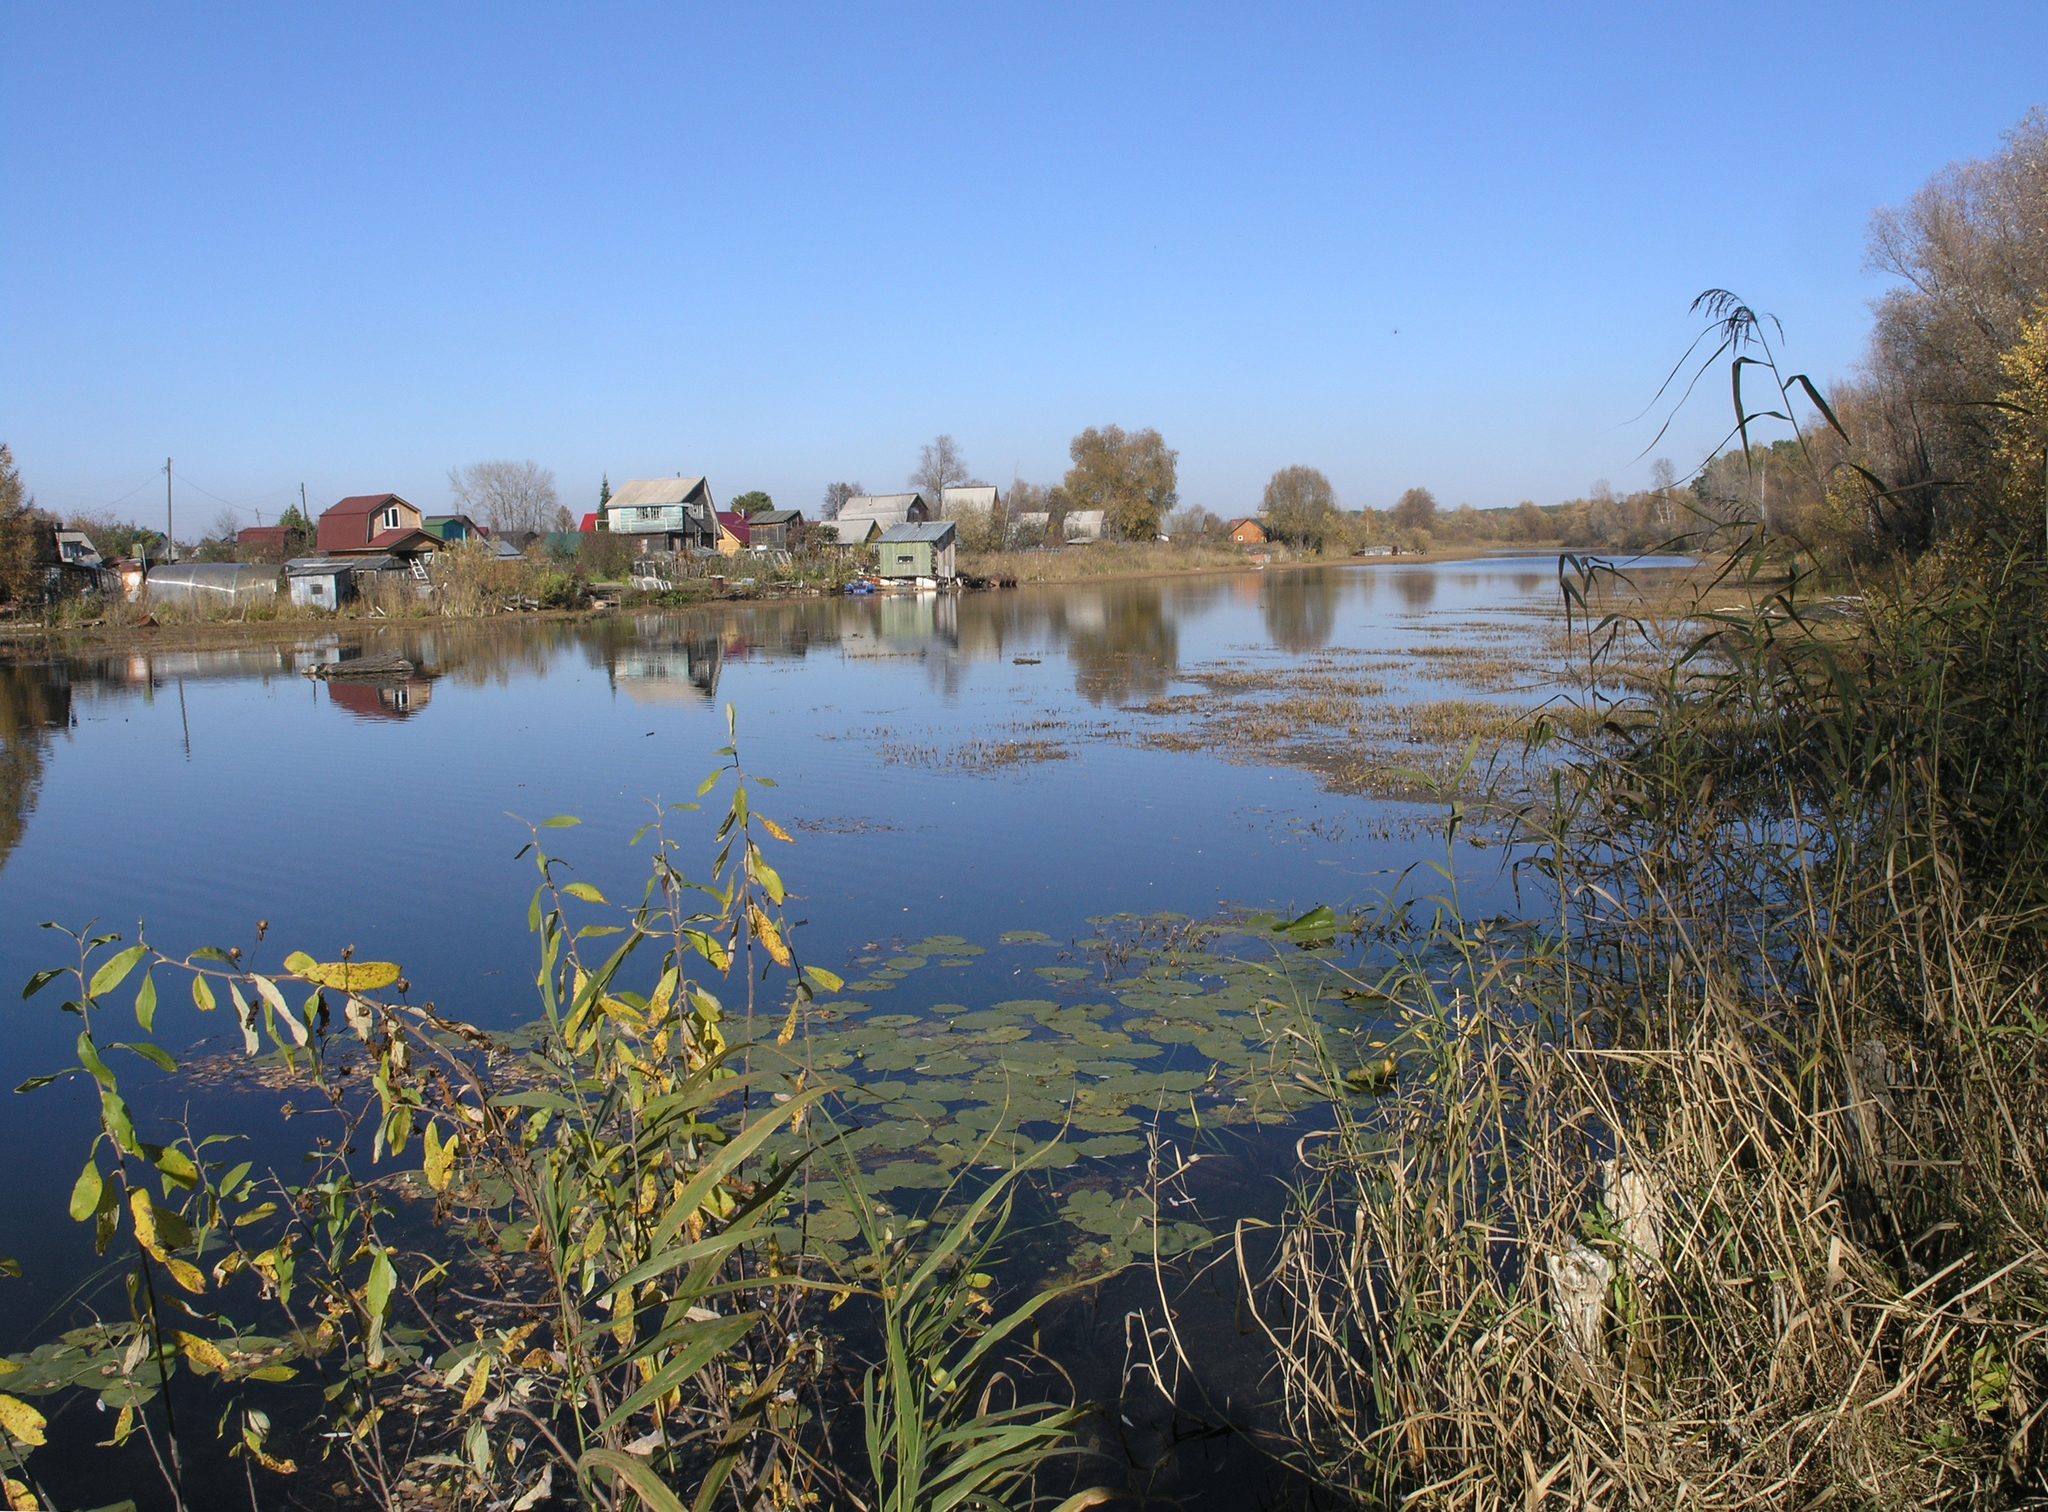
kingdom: Plantae
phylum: Tracheophyta
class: Liliopsida
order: Poales
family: Poaceae
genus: Phragmites
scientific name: Phragmites australis
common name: Common reed
